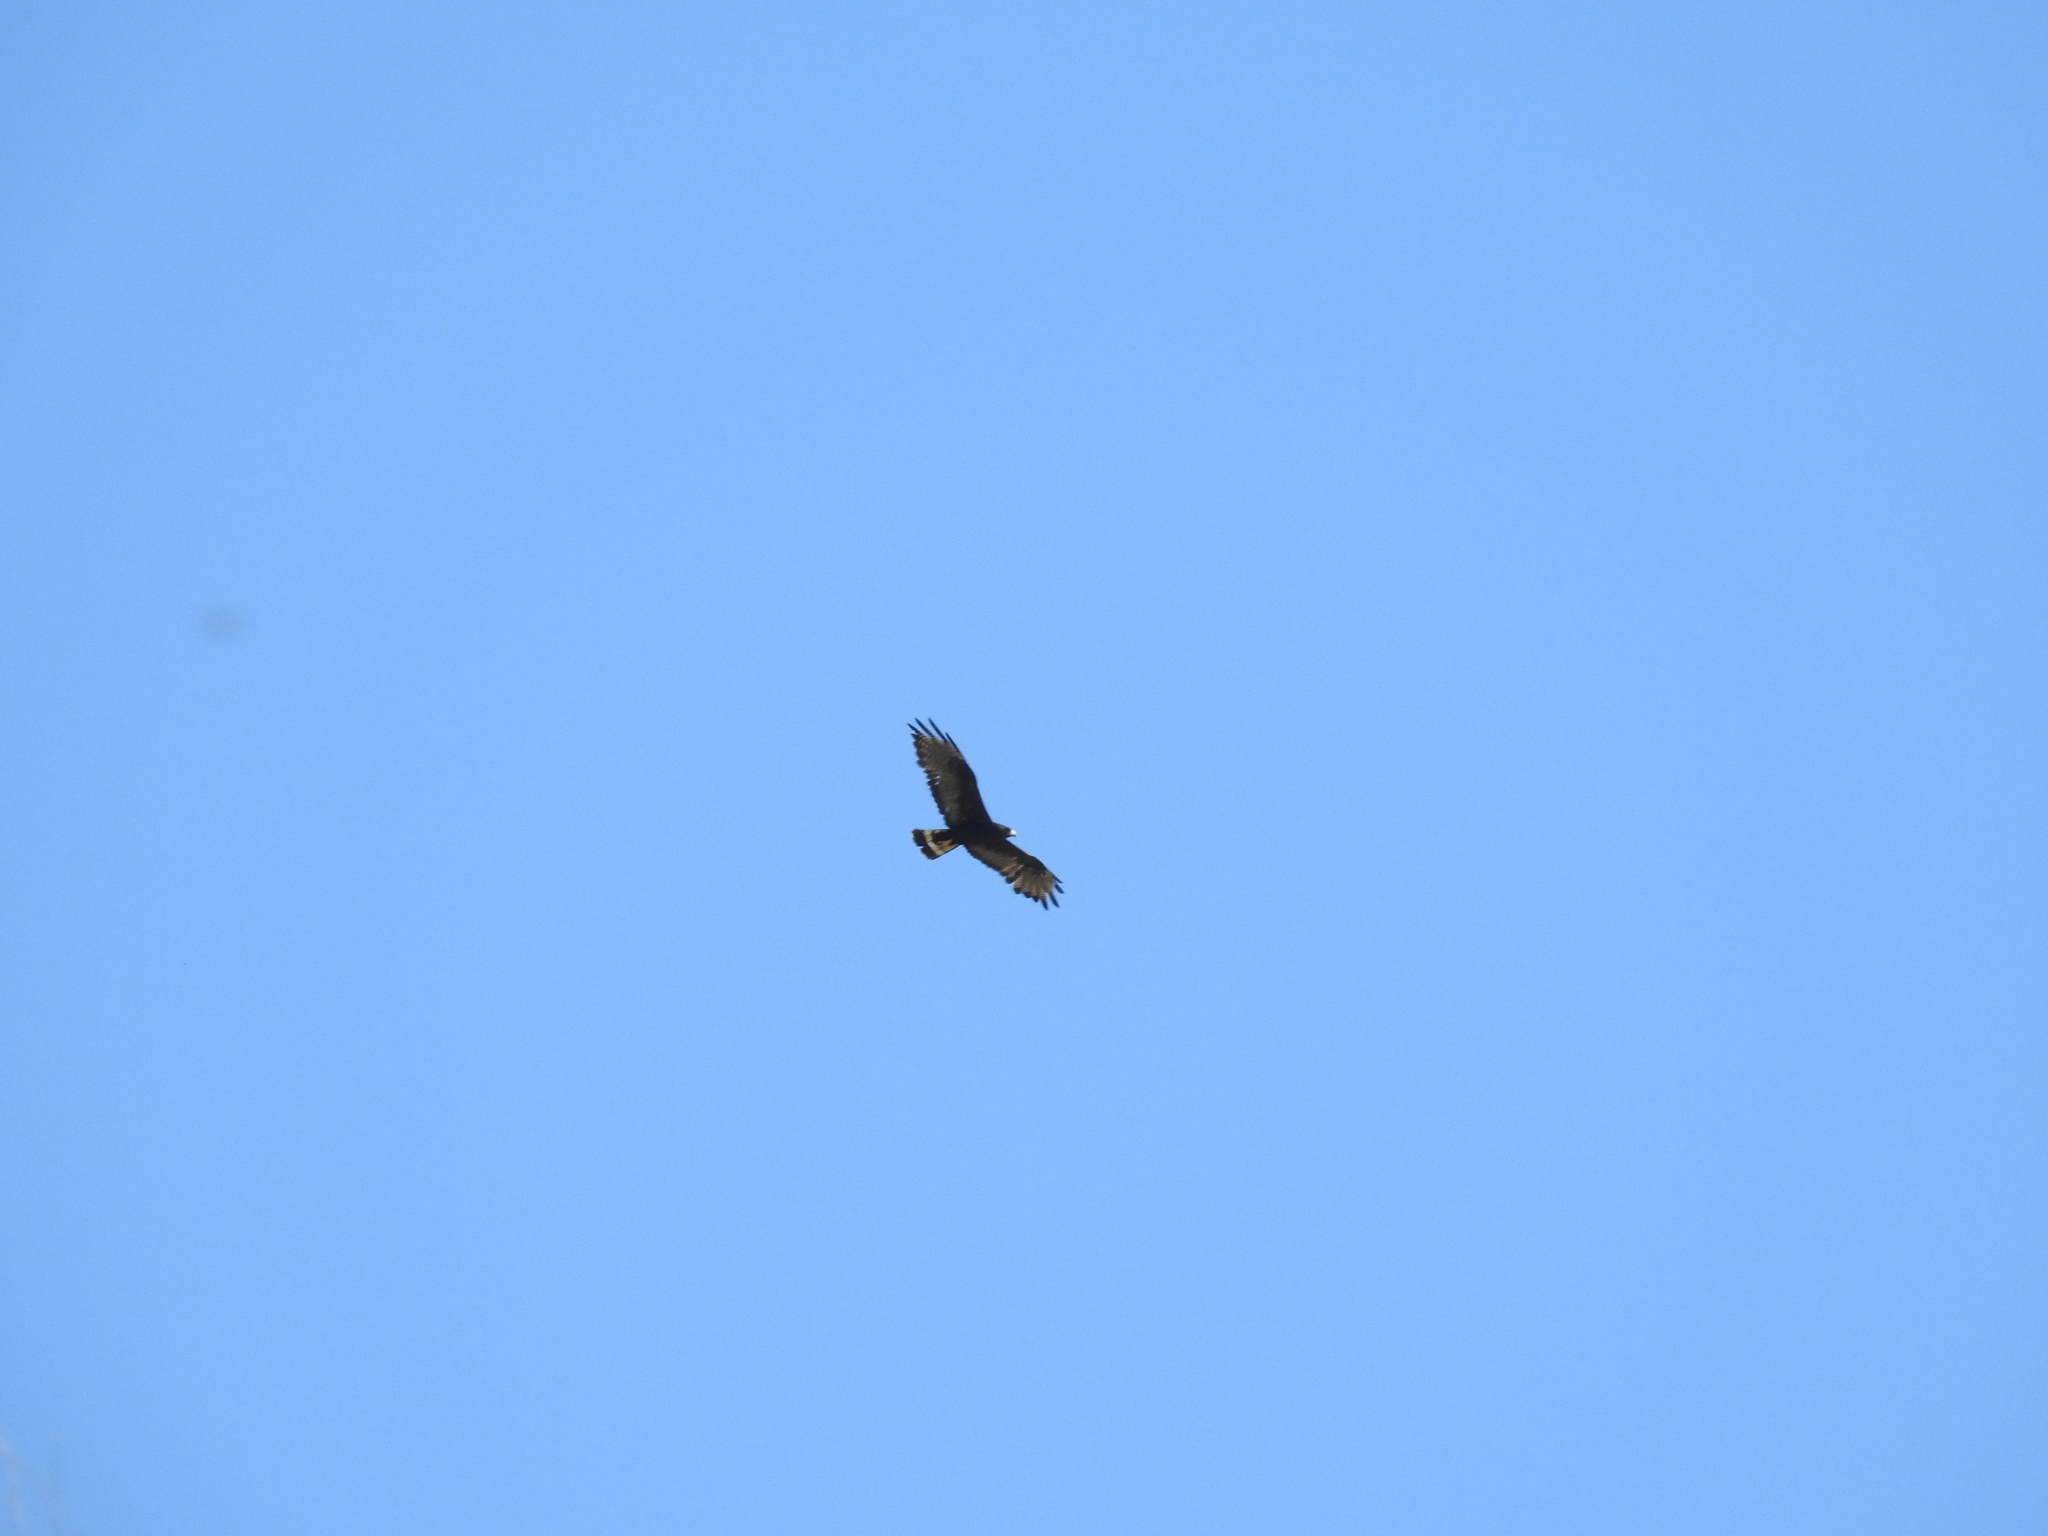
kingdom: Animalia
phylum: Chordata
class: Aves
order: Accipitriformes
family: Accipitridae
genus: Buteo
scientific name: Buteo albonotatus
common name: Zone-tailed hawk
